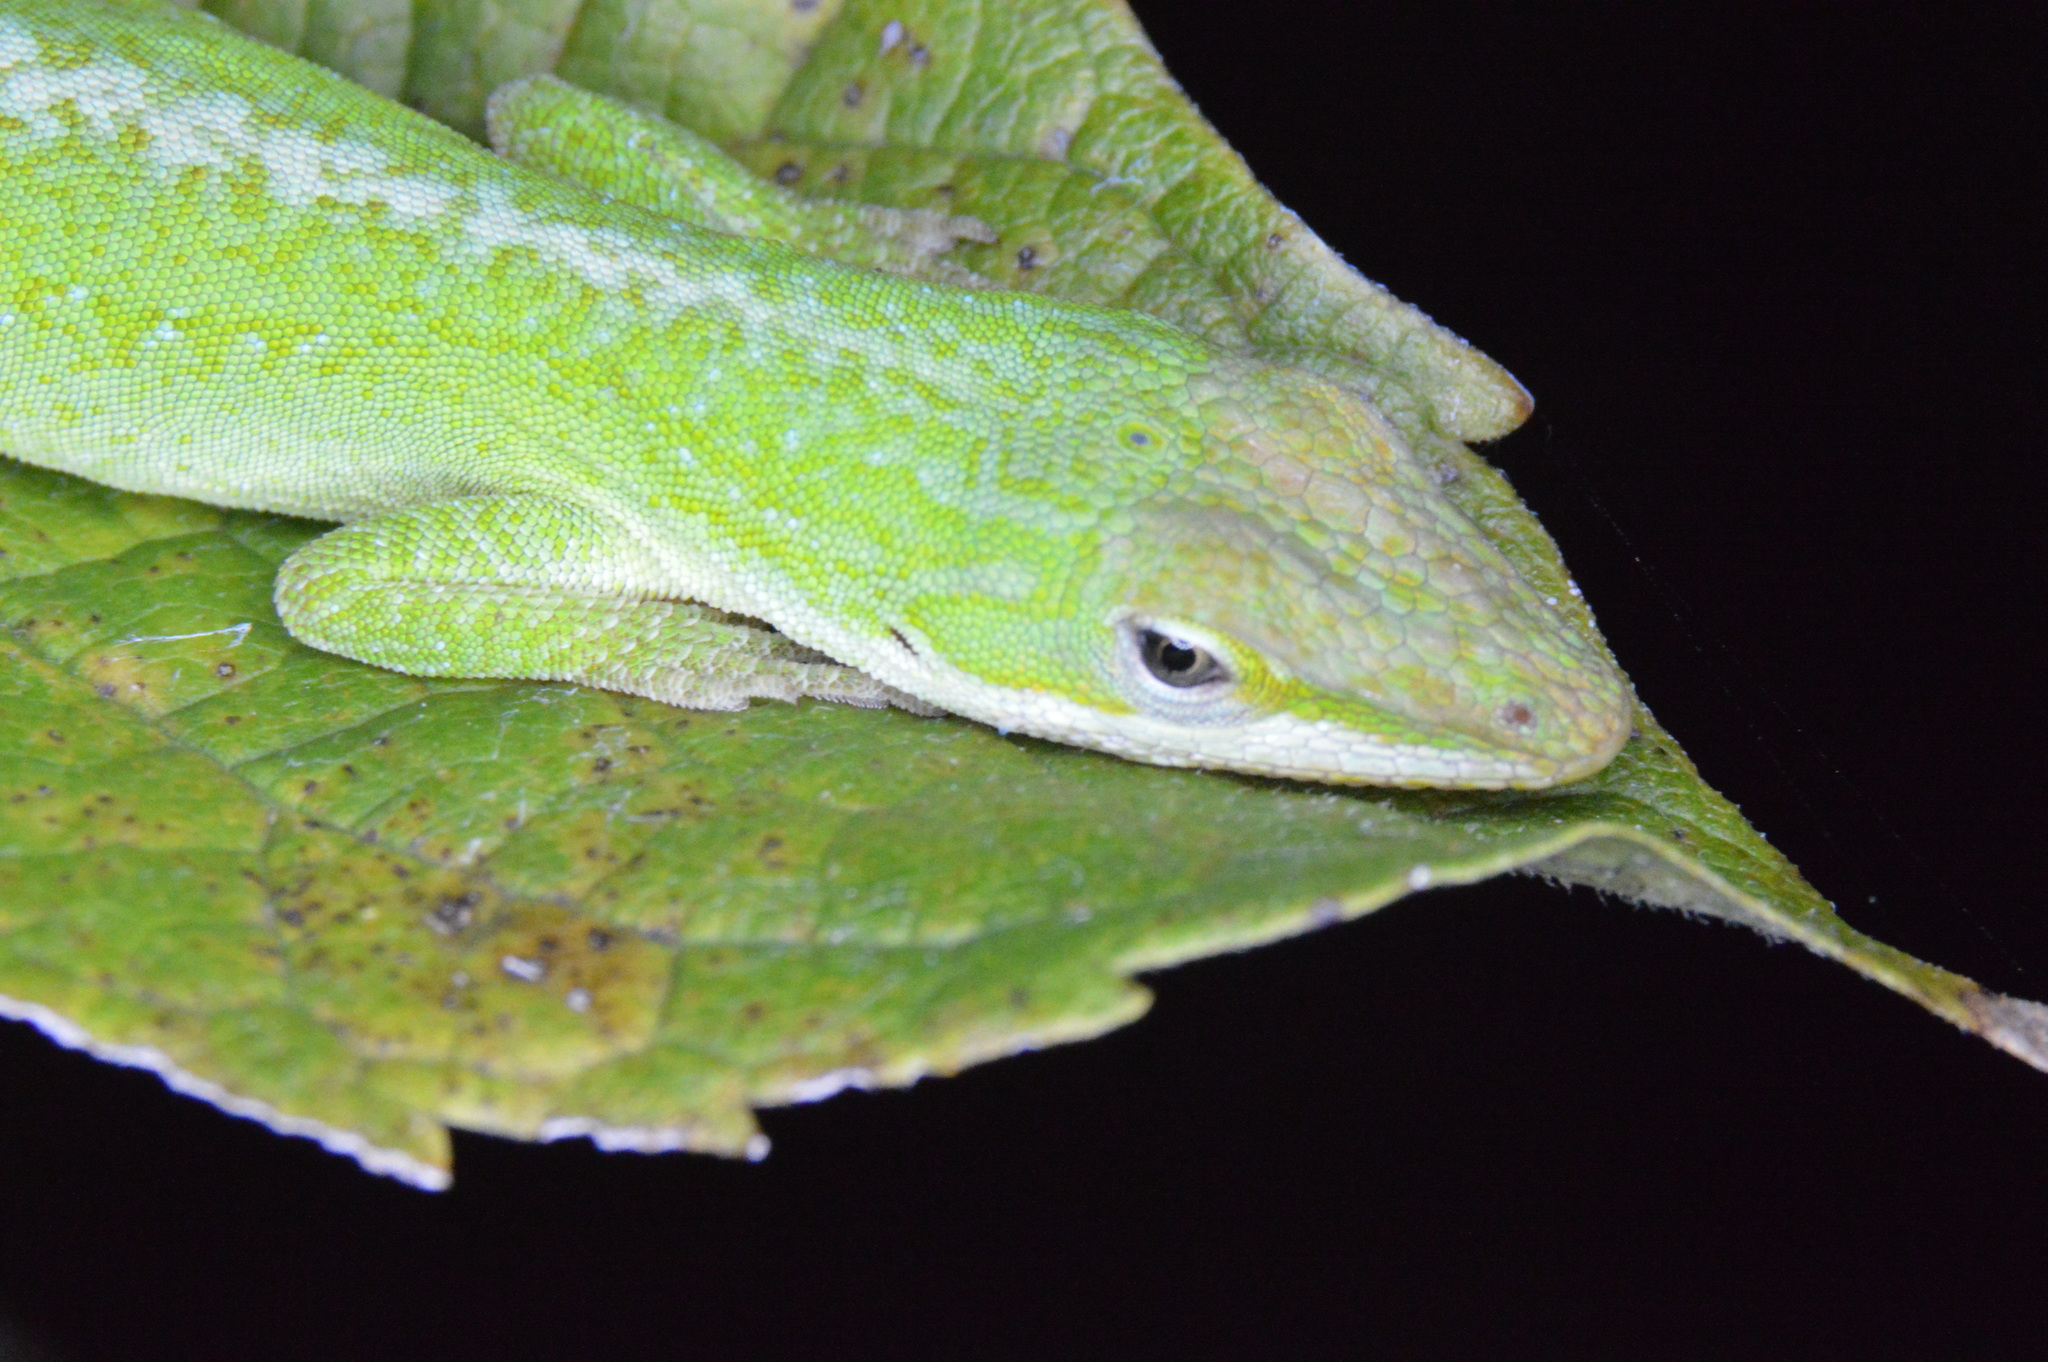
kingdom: Animalia
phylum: Chordata
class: Squamata
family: Dactyloidae
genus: Anolis
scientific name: Anolis carolinensis
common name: Green anole
